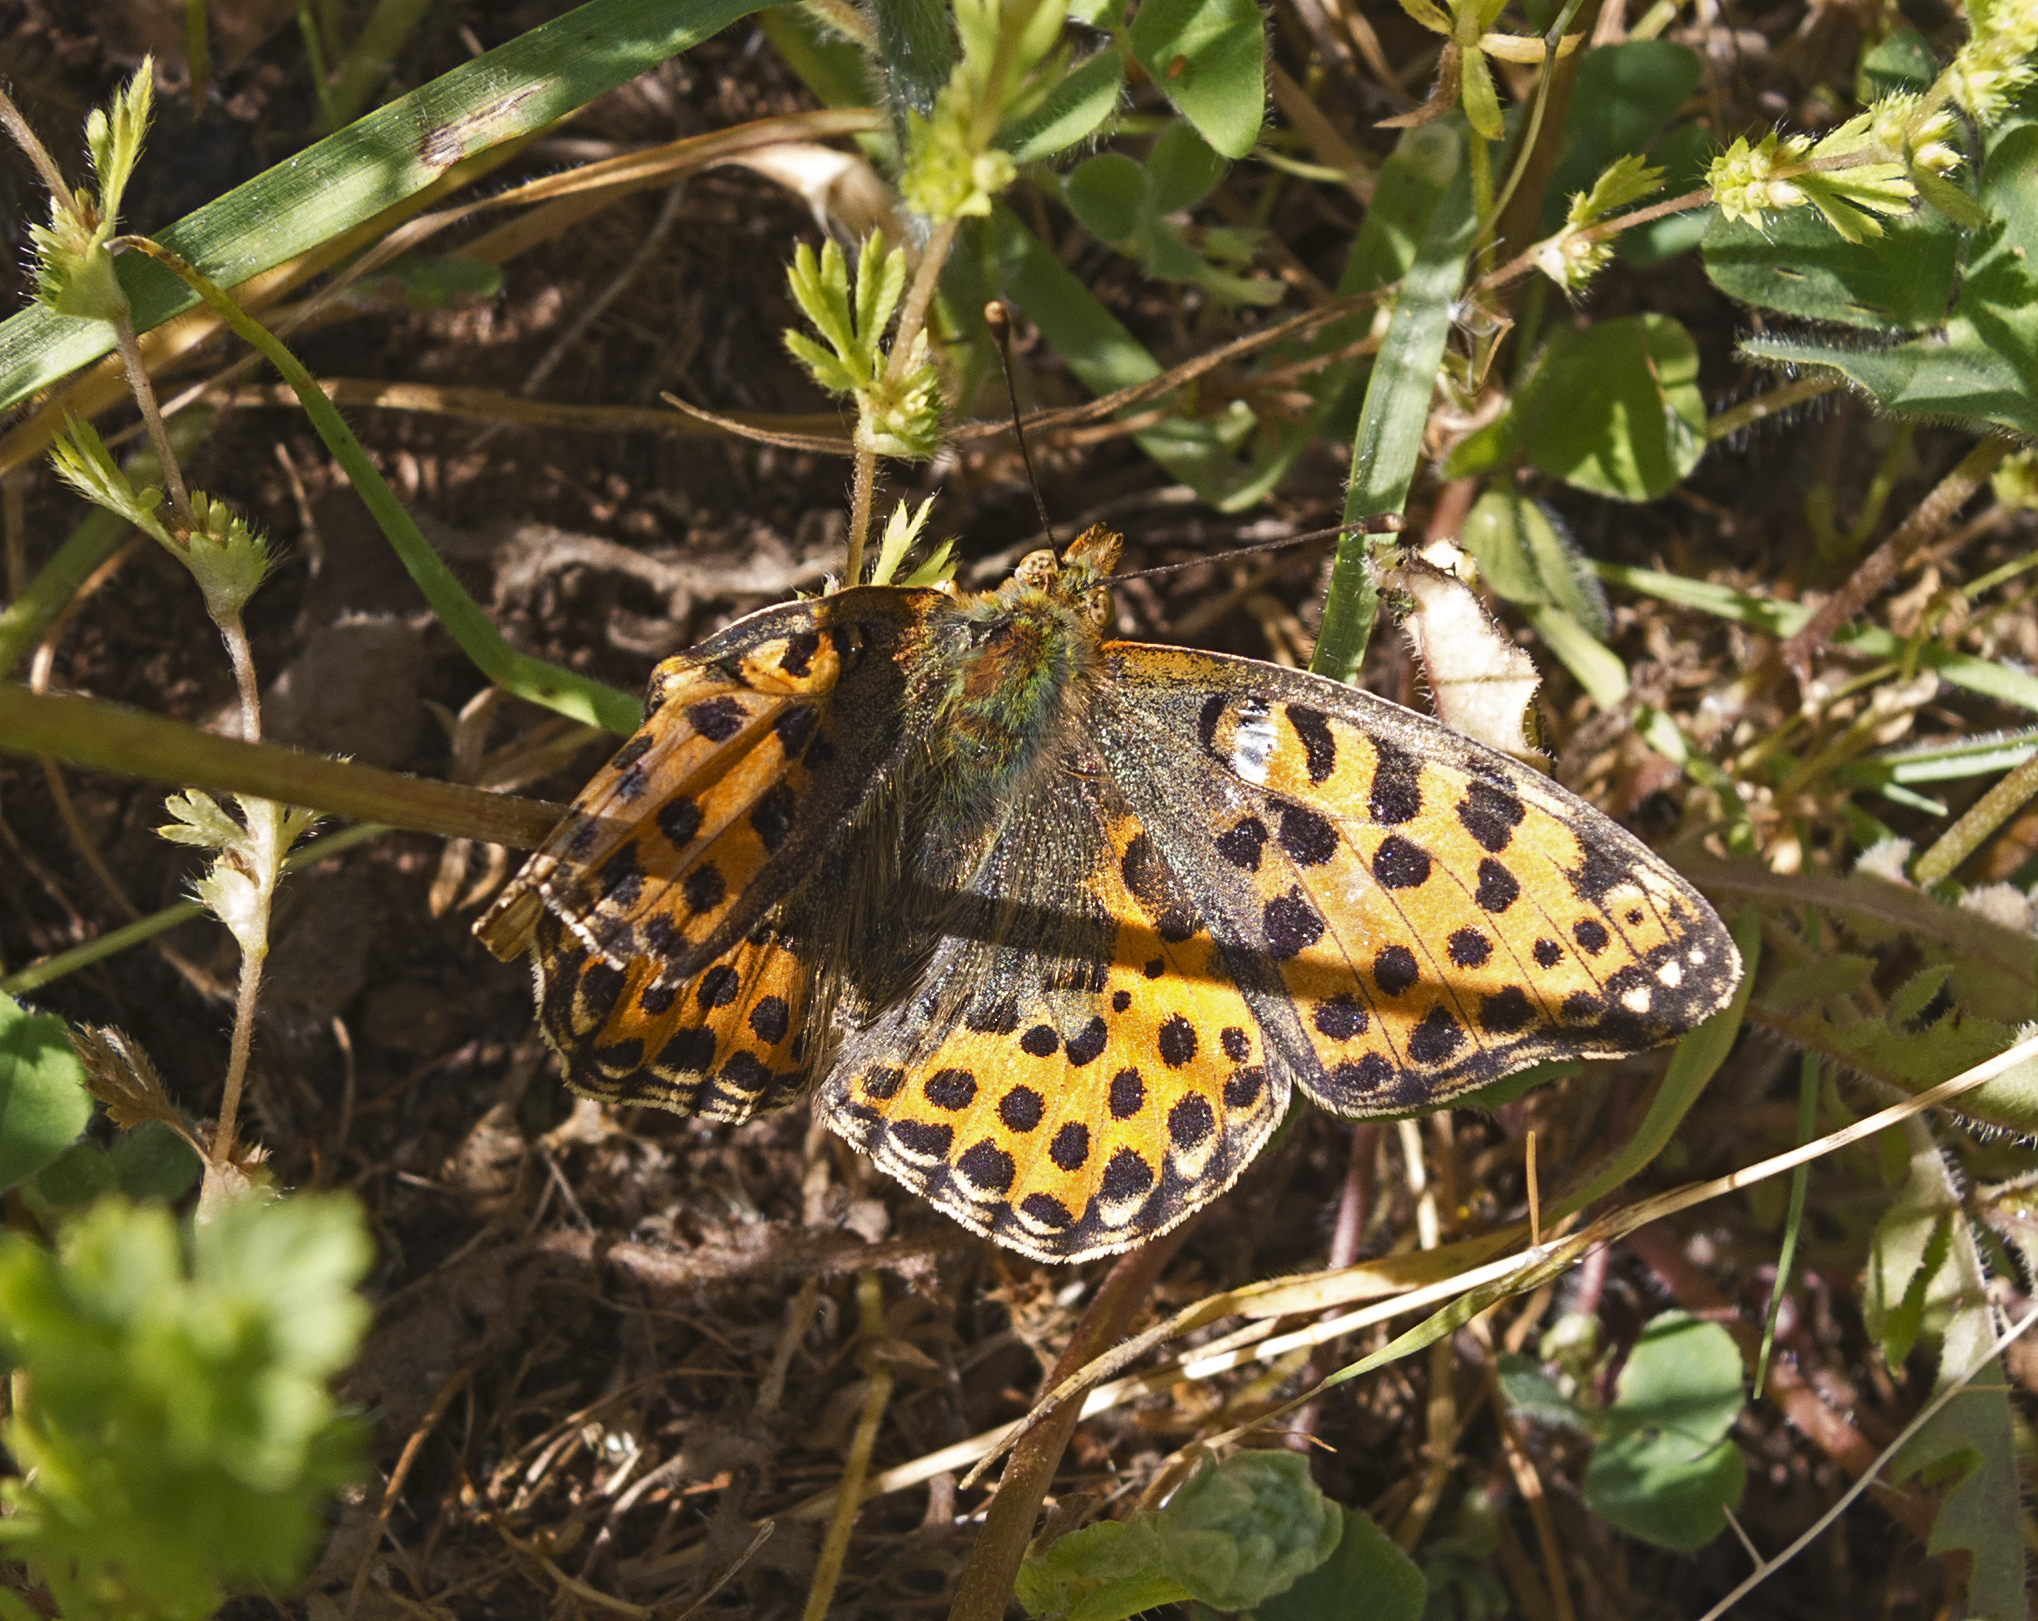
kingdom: Animalia
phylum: Arthropoda
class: Insecta
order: Lepidoptera
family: Nymphalidae
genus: Issoria
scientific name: Issoria lathonia
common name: Queen of spain fritillary
